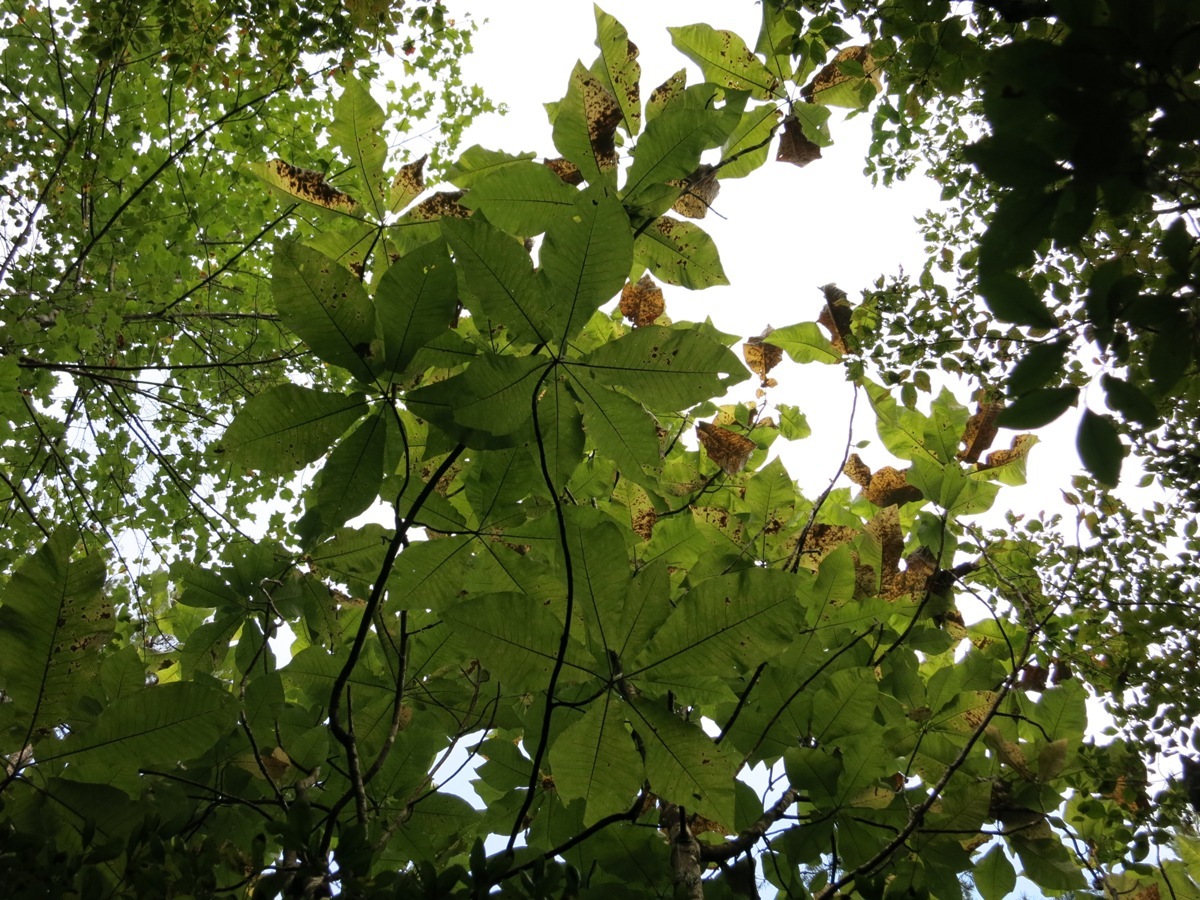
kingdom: Plantae
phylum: Tracheophyta
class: Magnoliopsida
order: Magnoliales
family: Magnoliaceae
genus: Magnolia
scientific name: Magnolia macrophylla
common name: Big-leaf magnolia
